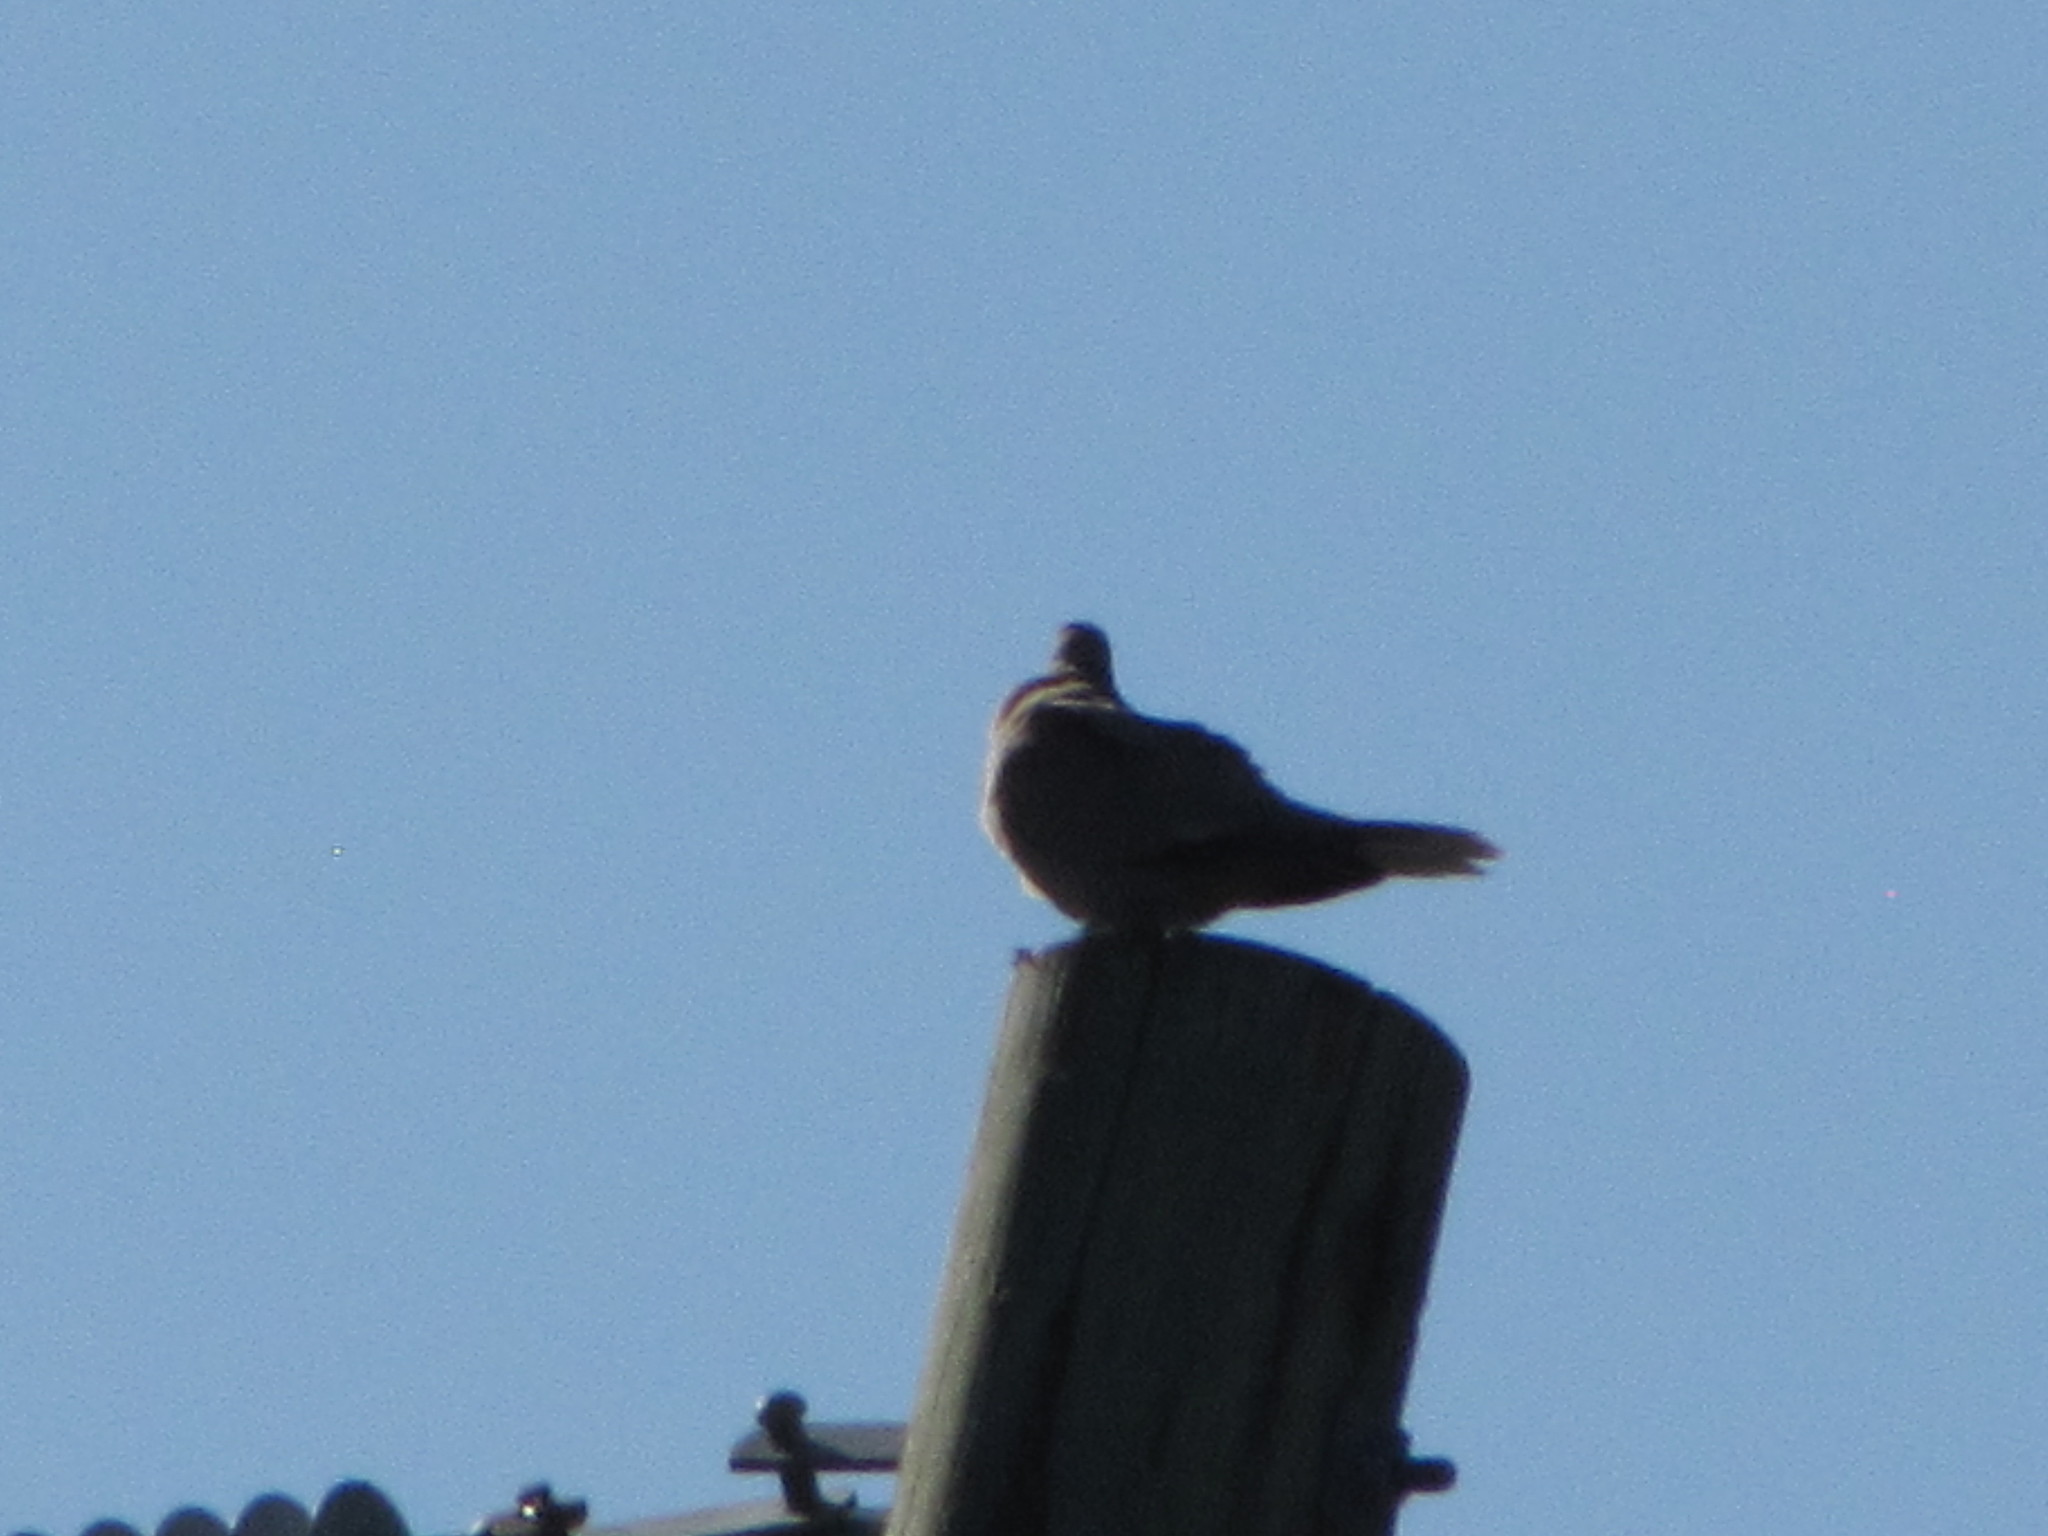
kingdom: Animalia
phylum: Chordata
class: Aves
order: Columbiformes
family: Columbidae
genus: Streptopelia
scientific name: Streptopelia decaocto
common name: Eurasian collared dove
